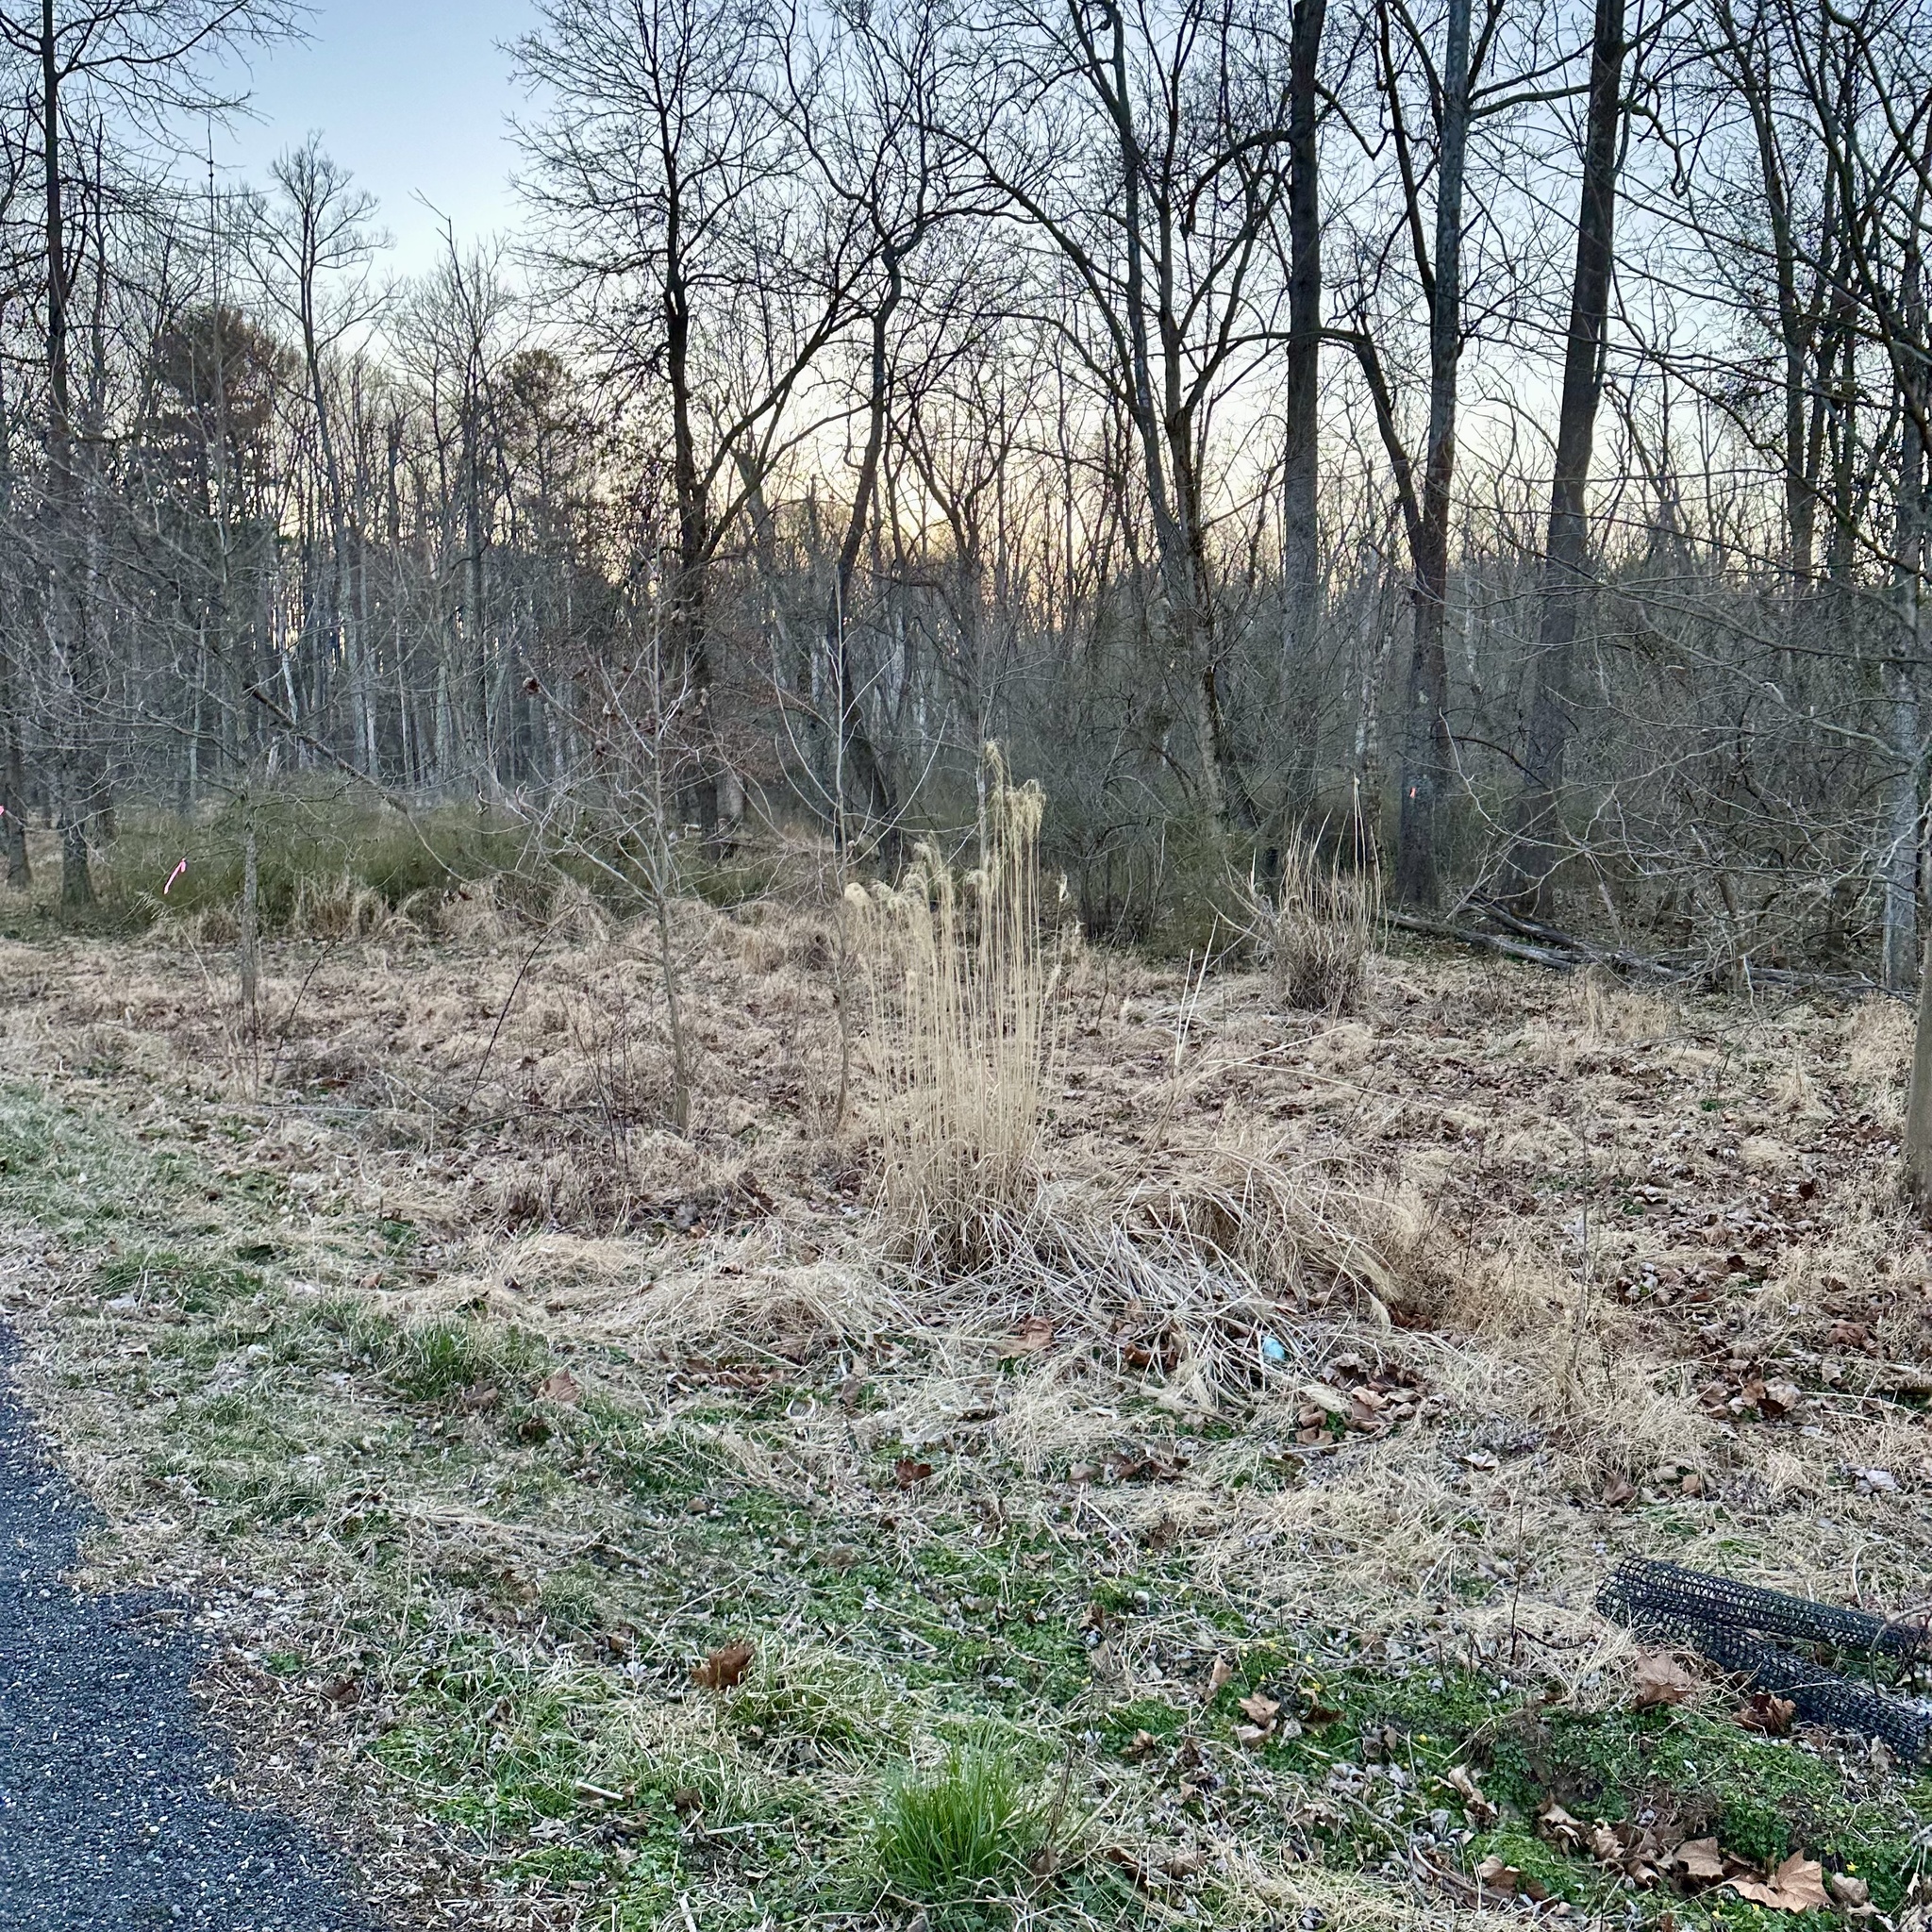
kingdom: Plantae
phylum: Tracheophyta
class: Liliopsida
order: Poales
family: Poaceae
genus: Miscanthus
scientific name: Miscanthus sinensis
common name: Chinese silvergrass
